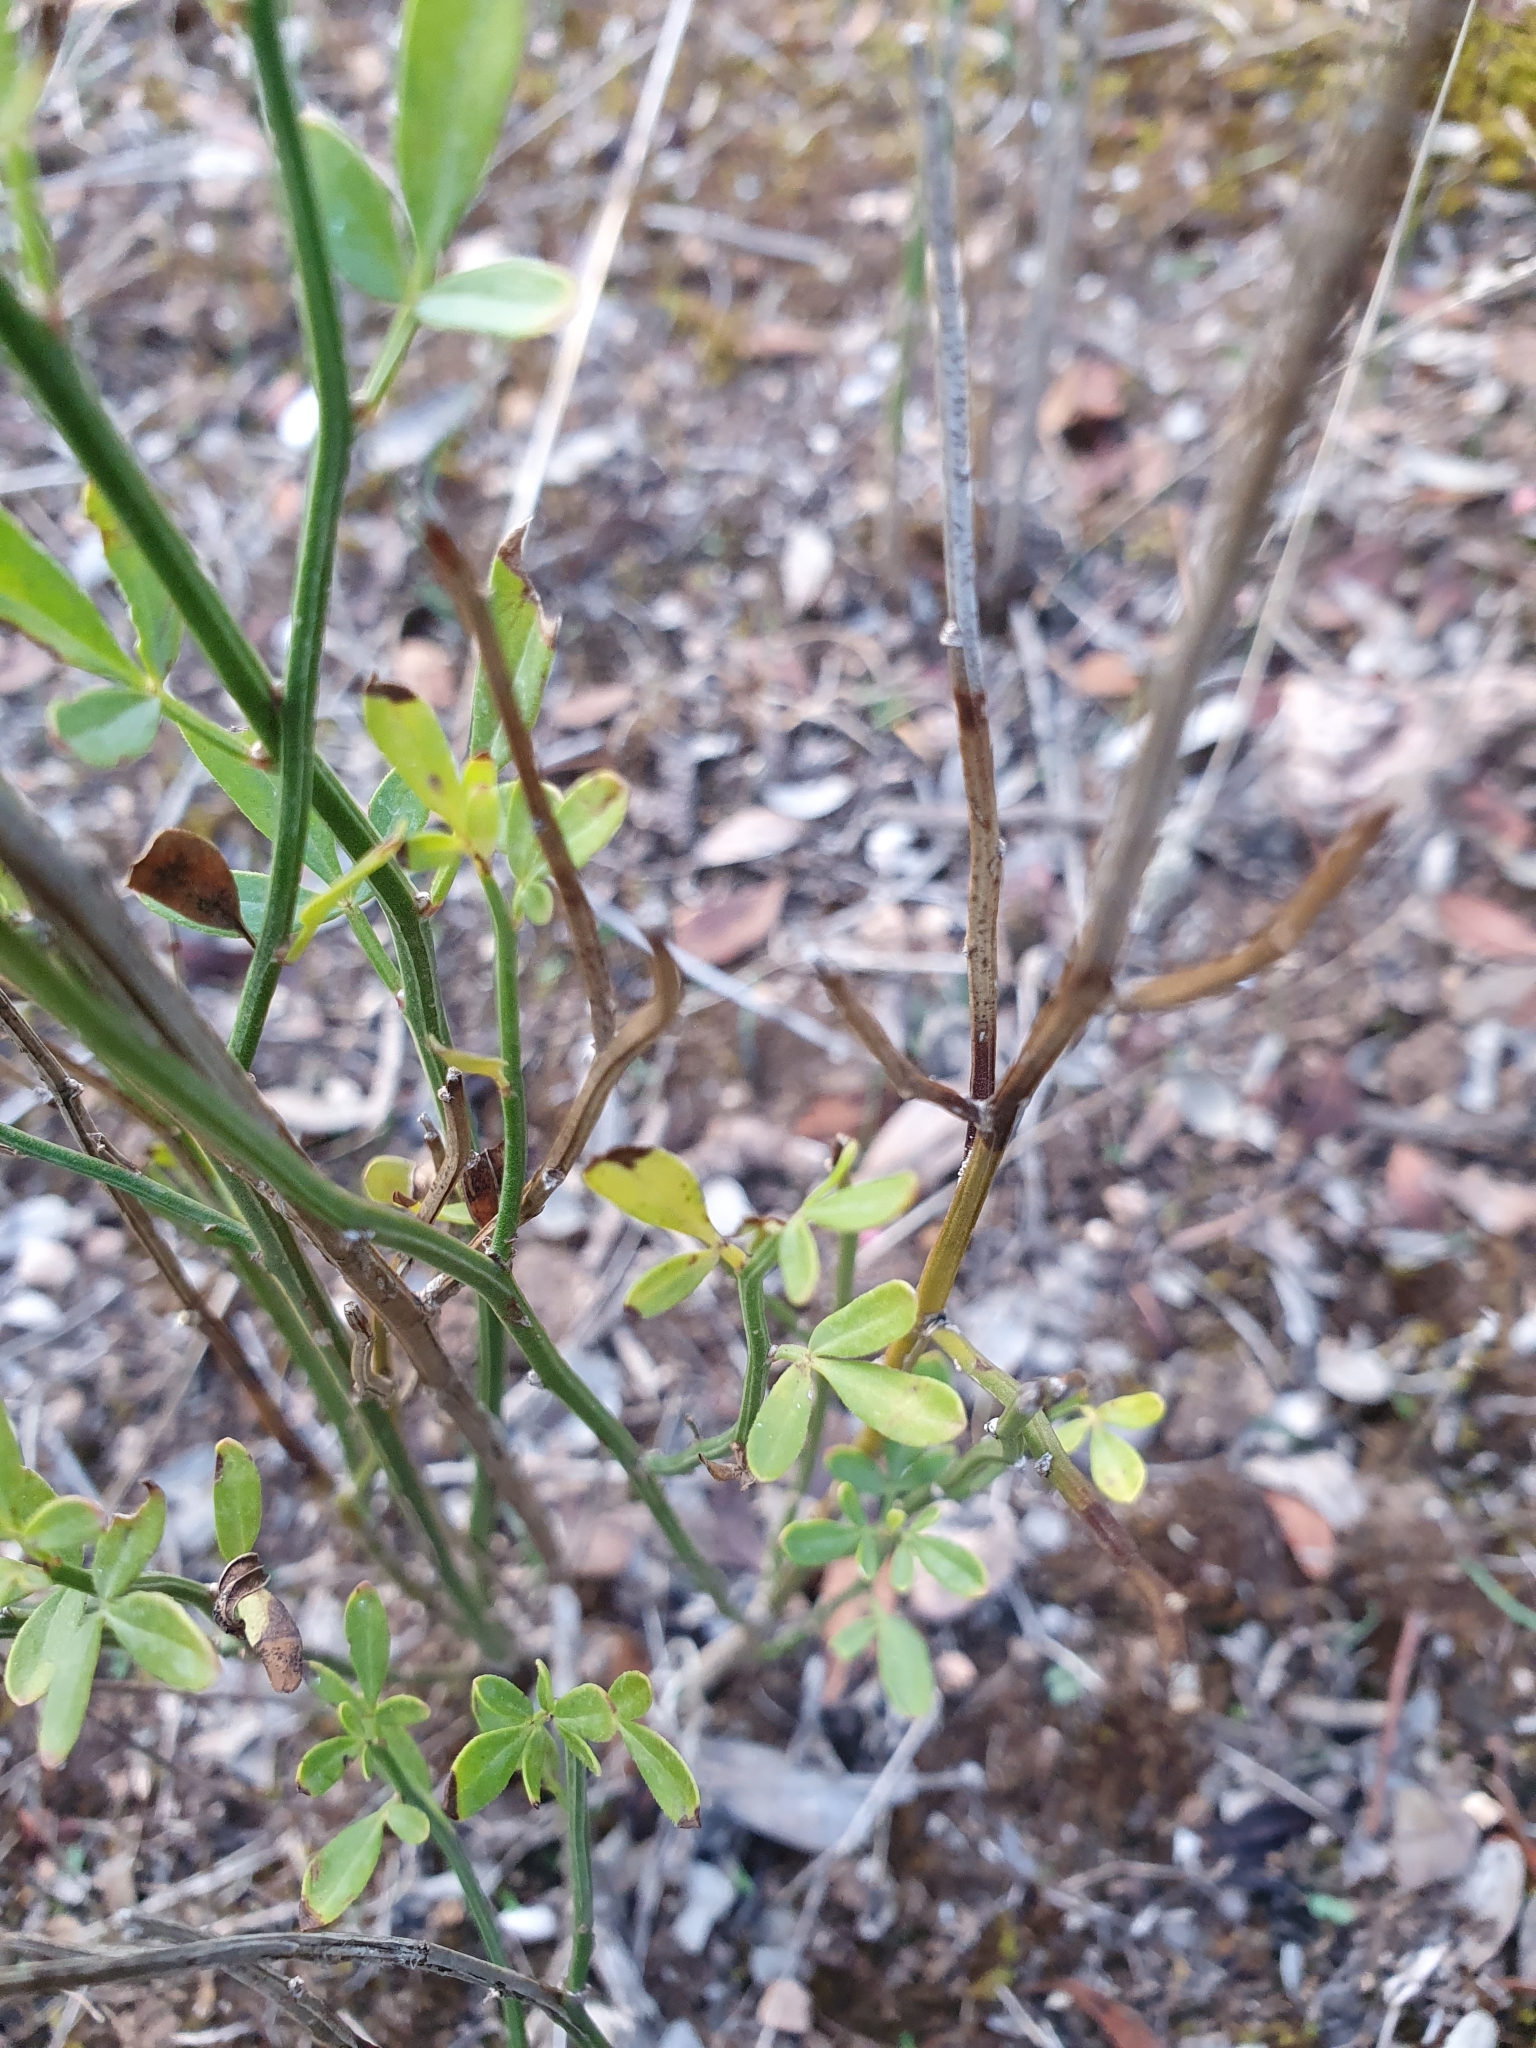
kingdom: Plantae
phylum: Tracheophyta
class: Magnoliopsida
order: Lamiales
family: Oleaceae
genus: Chrysojasminum
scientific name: Chrysojasminum fruticans
